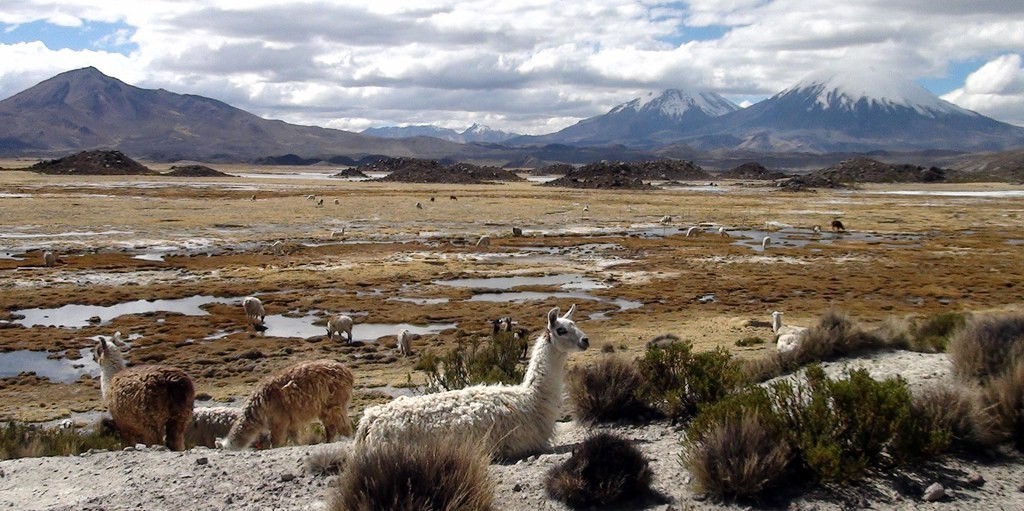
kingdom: Animalia
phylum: Chordata
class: Mammalia
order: Artiodactyla
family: Camelidae
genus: Lama
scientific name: Lama glama
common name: Llama
